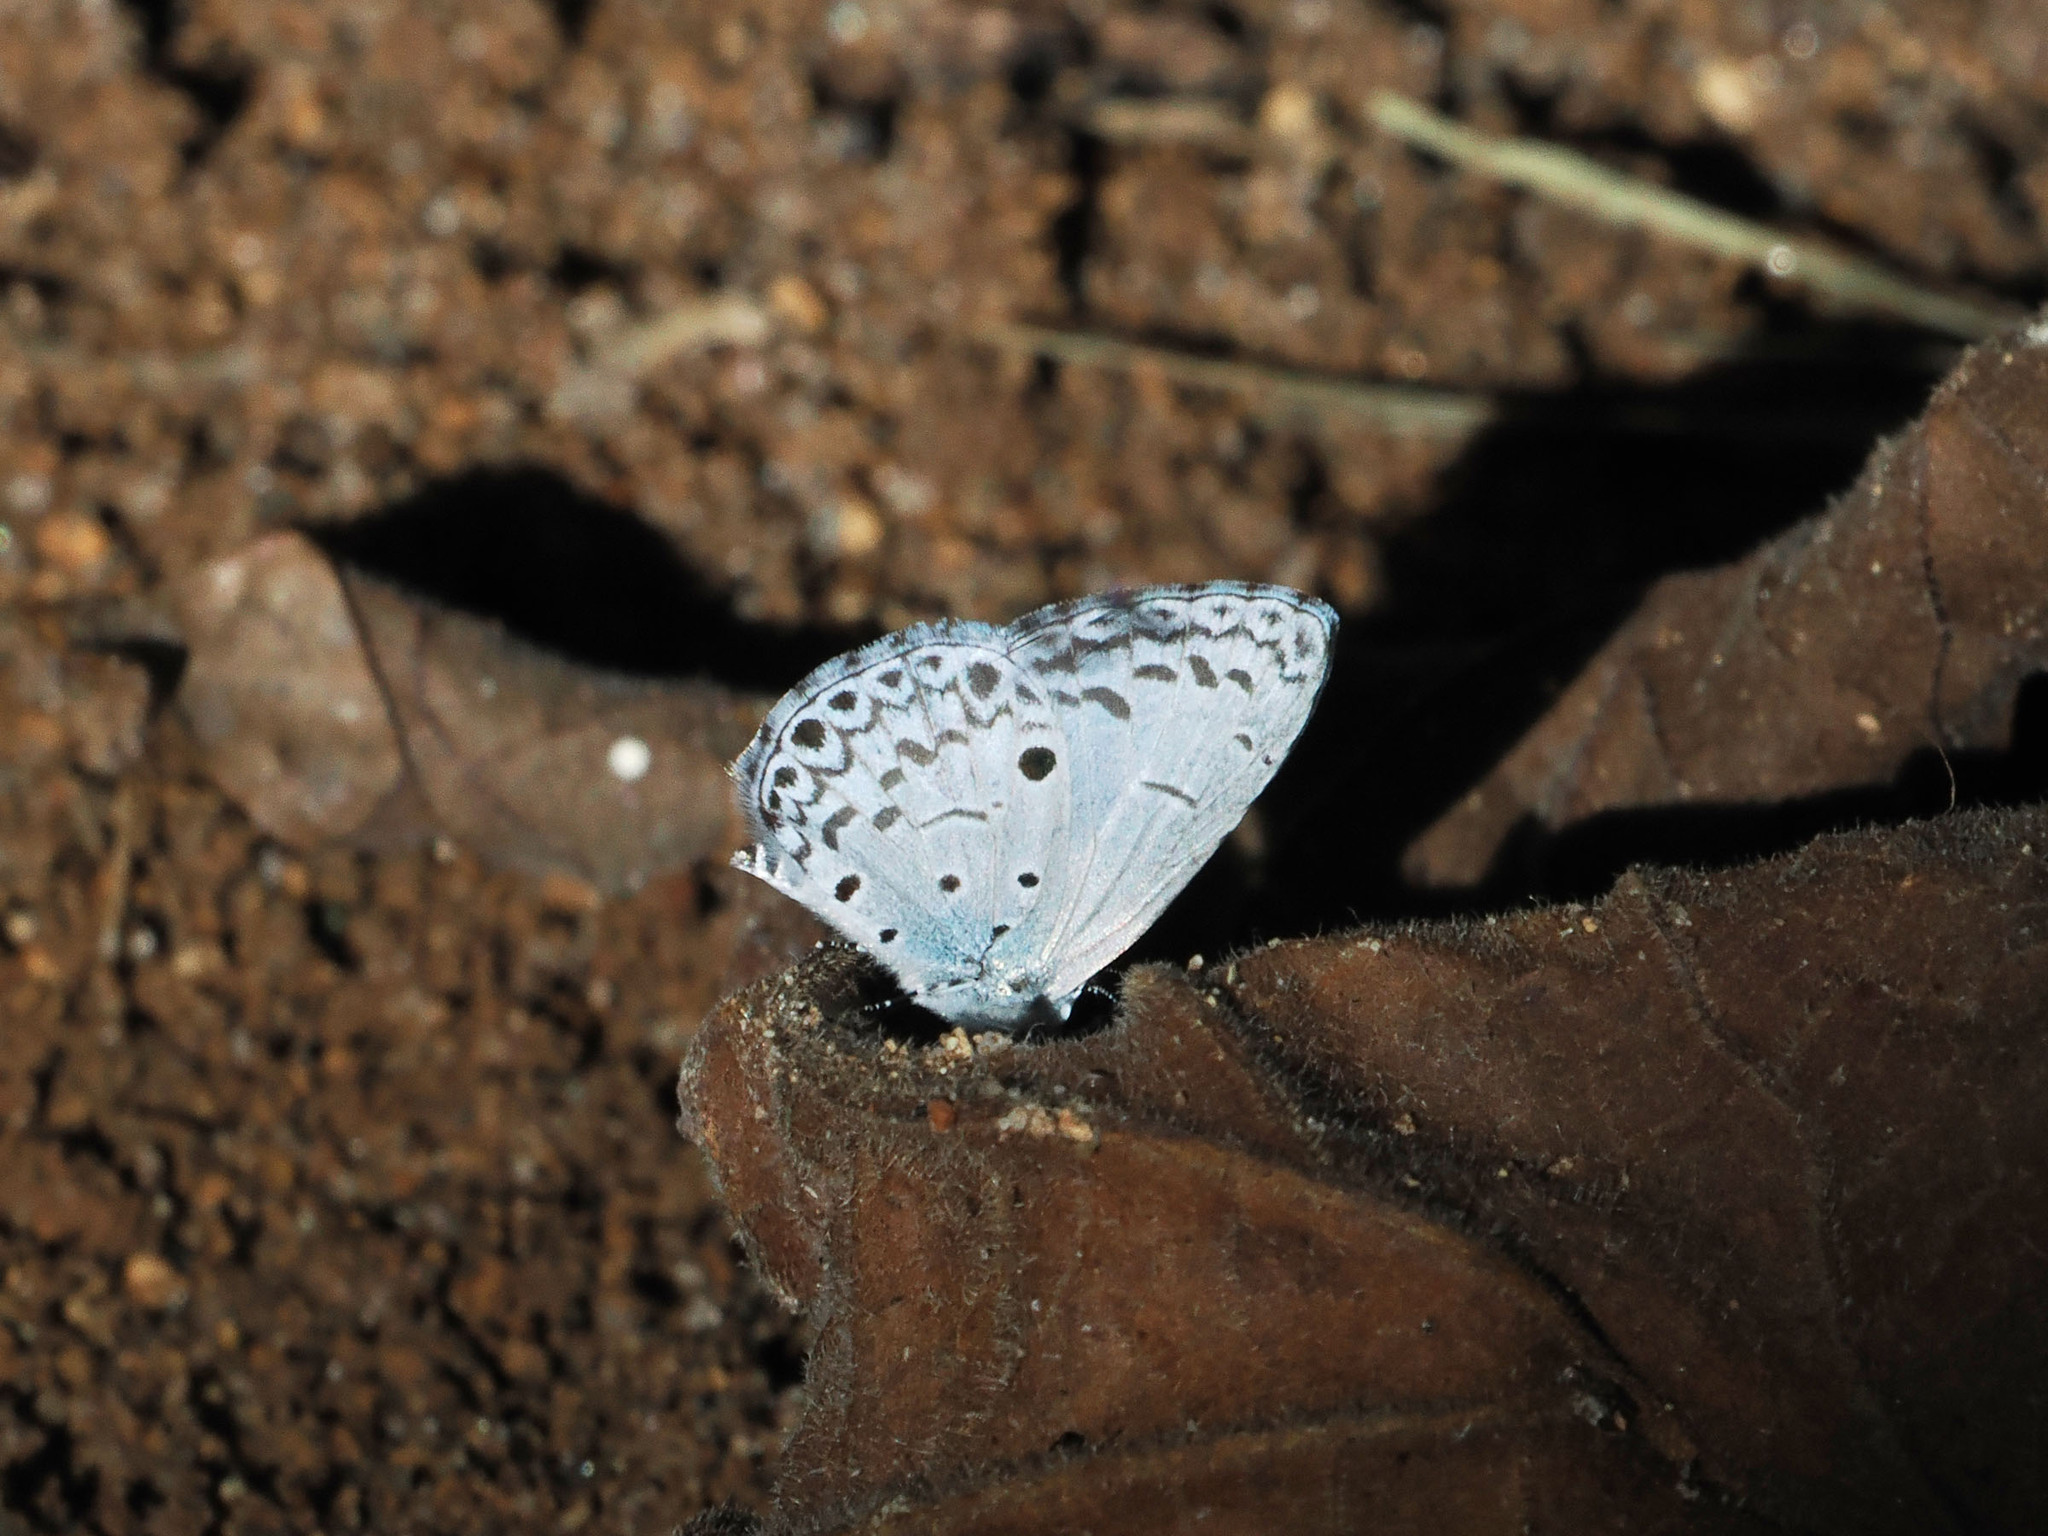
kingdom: Animalia
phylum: Arthropoda
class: Insecta
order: Lepidoptera
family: Lycaenidae
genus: Acytolepis
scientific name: Acytolepis puspa
